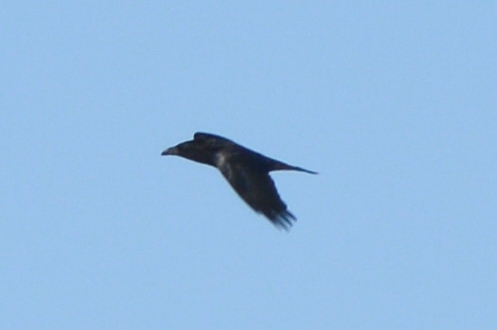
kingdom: Animalia
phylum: Chordata
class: Aves
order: Passeriformes
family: Corvidae
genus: Corvus
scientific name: Corvus corax
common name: Common raven
